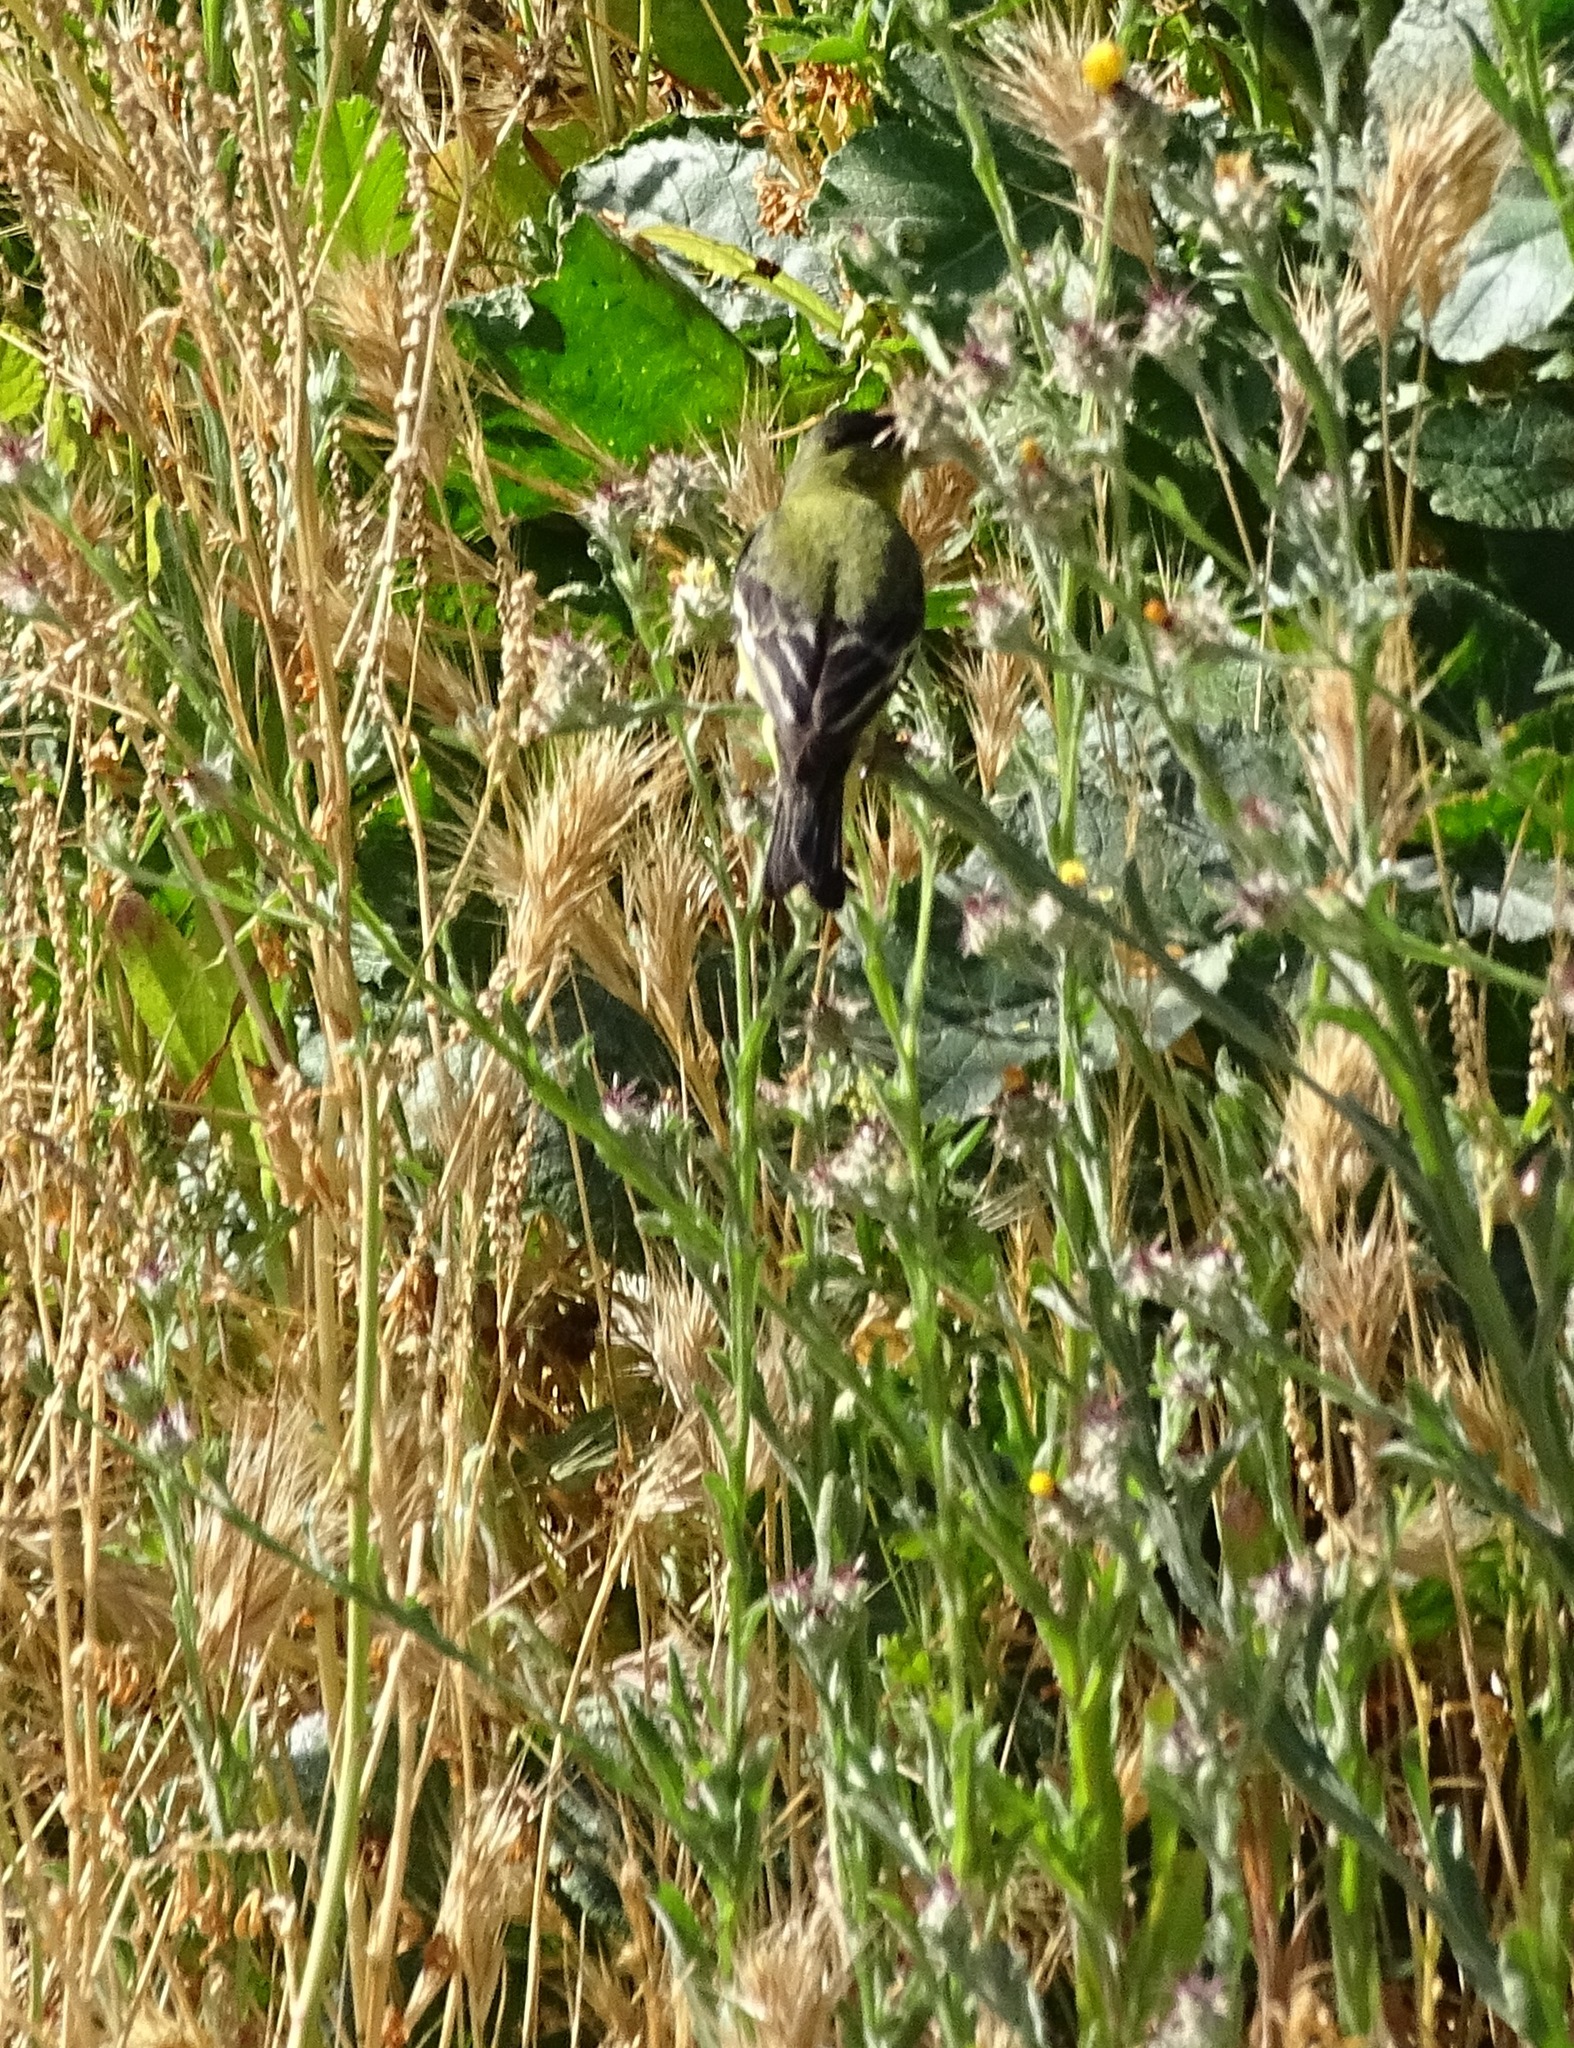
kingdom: Animalia
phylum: Chordata
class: Aves
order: Passeriformes
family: Fringillidae
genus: Spinus
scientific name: Spinus psaltria
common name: Lesser goldfinch
